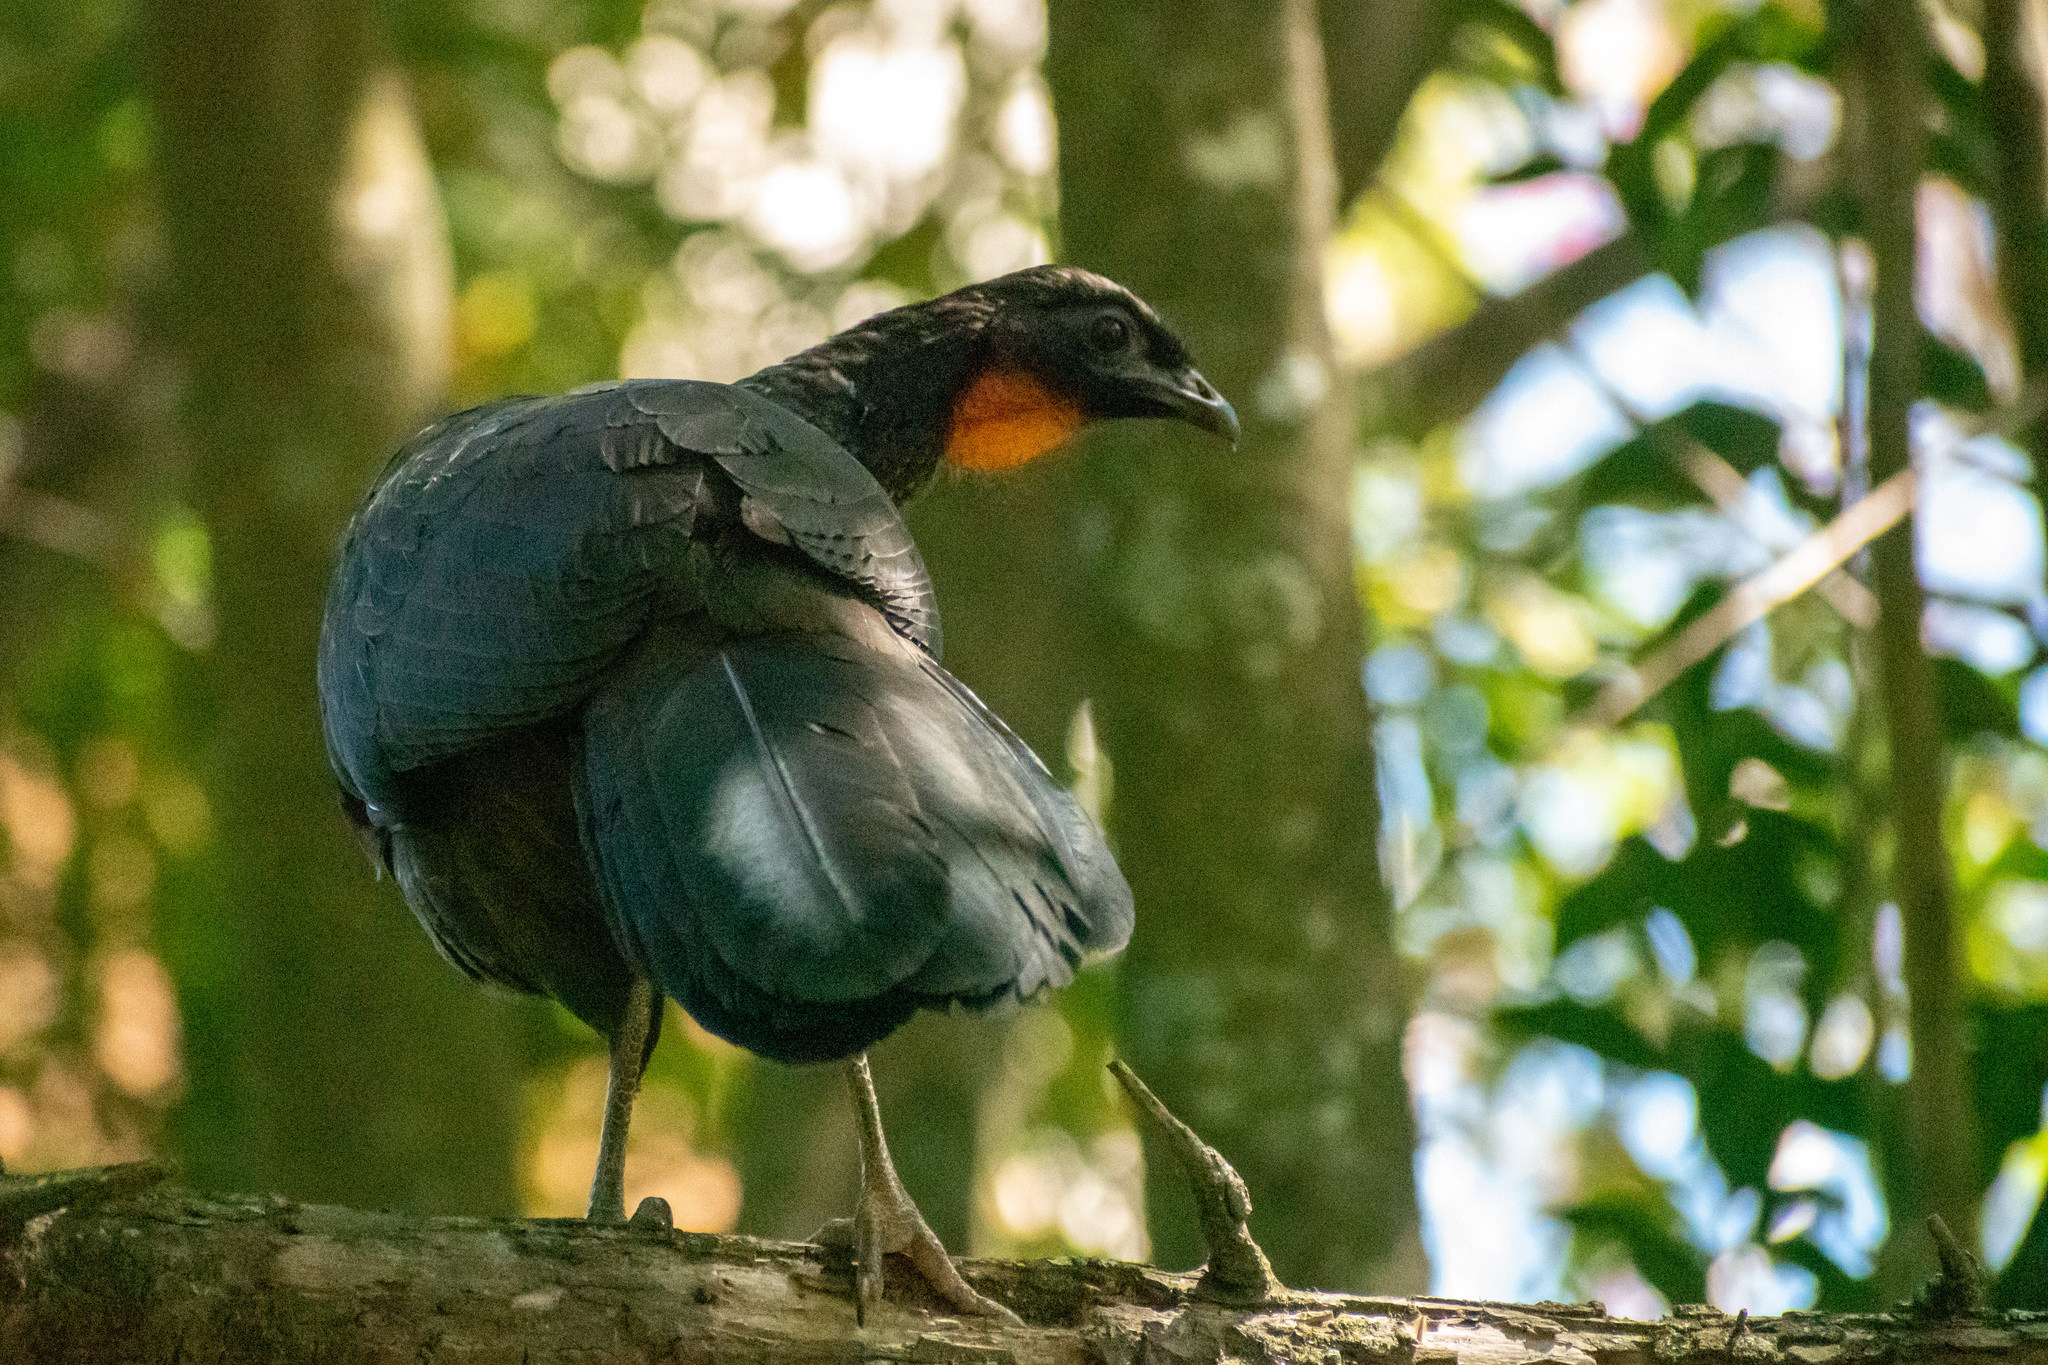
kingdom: Animalia
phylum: Chordata
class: Aves
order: Galliformes
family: Cracidae
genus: Penelope
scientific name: Penelope obscura
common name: Dusky-legged guan
